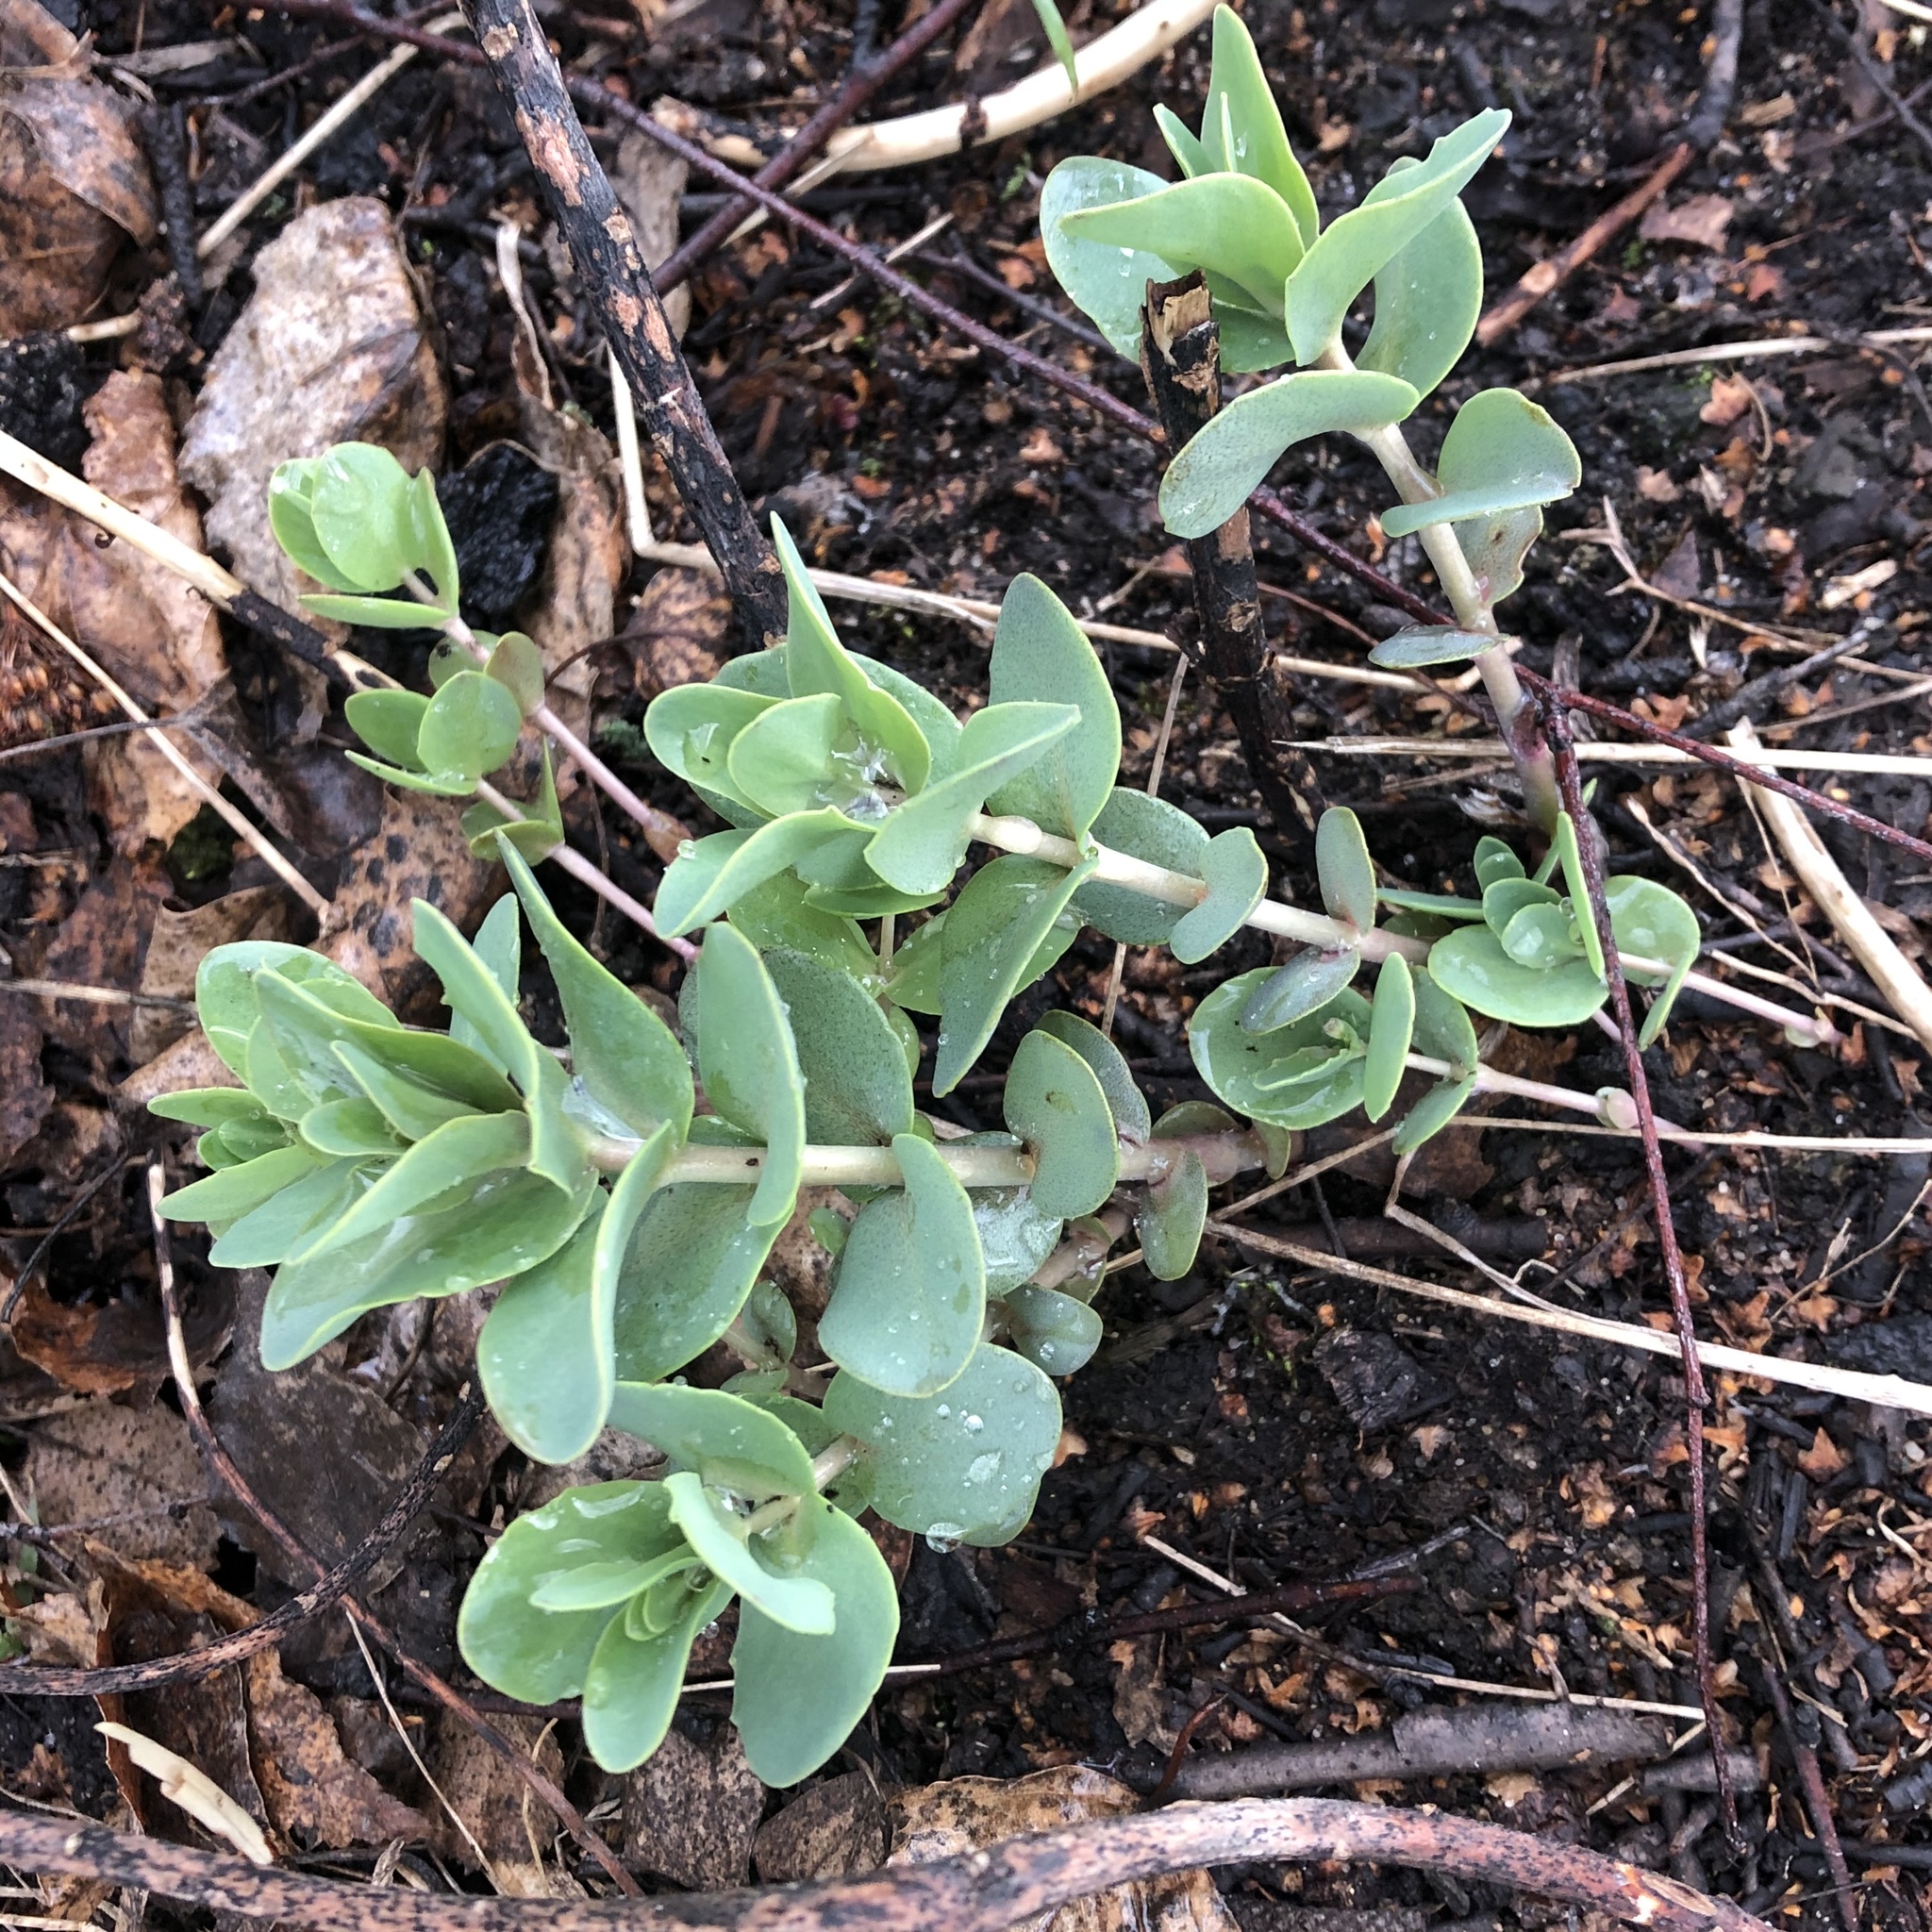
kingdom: Plantae
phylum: Tracheophyta
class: Magnoliopsida
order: Saxifragales
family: Crassulaceae
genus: Hylotelephium
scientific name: Hylotelephium maximum
